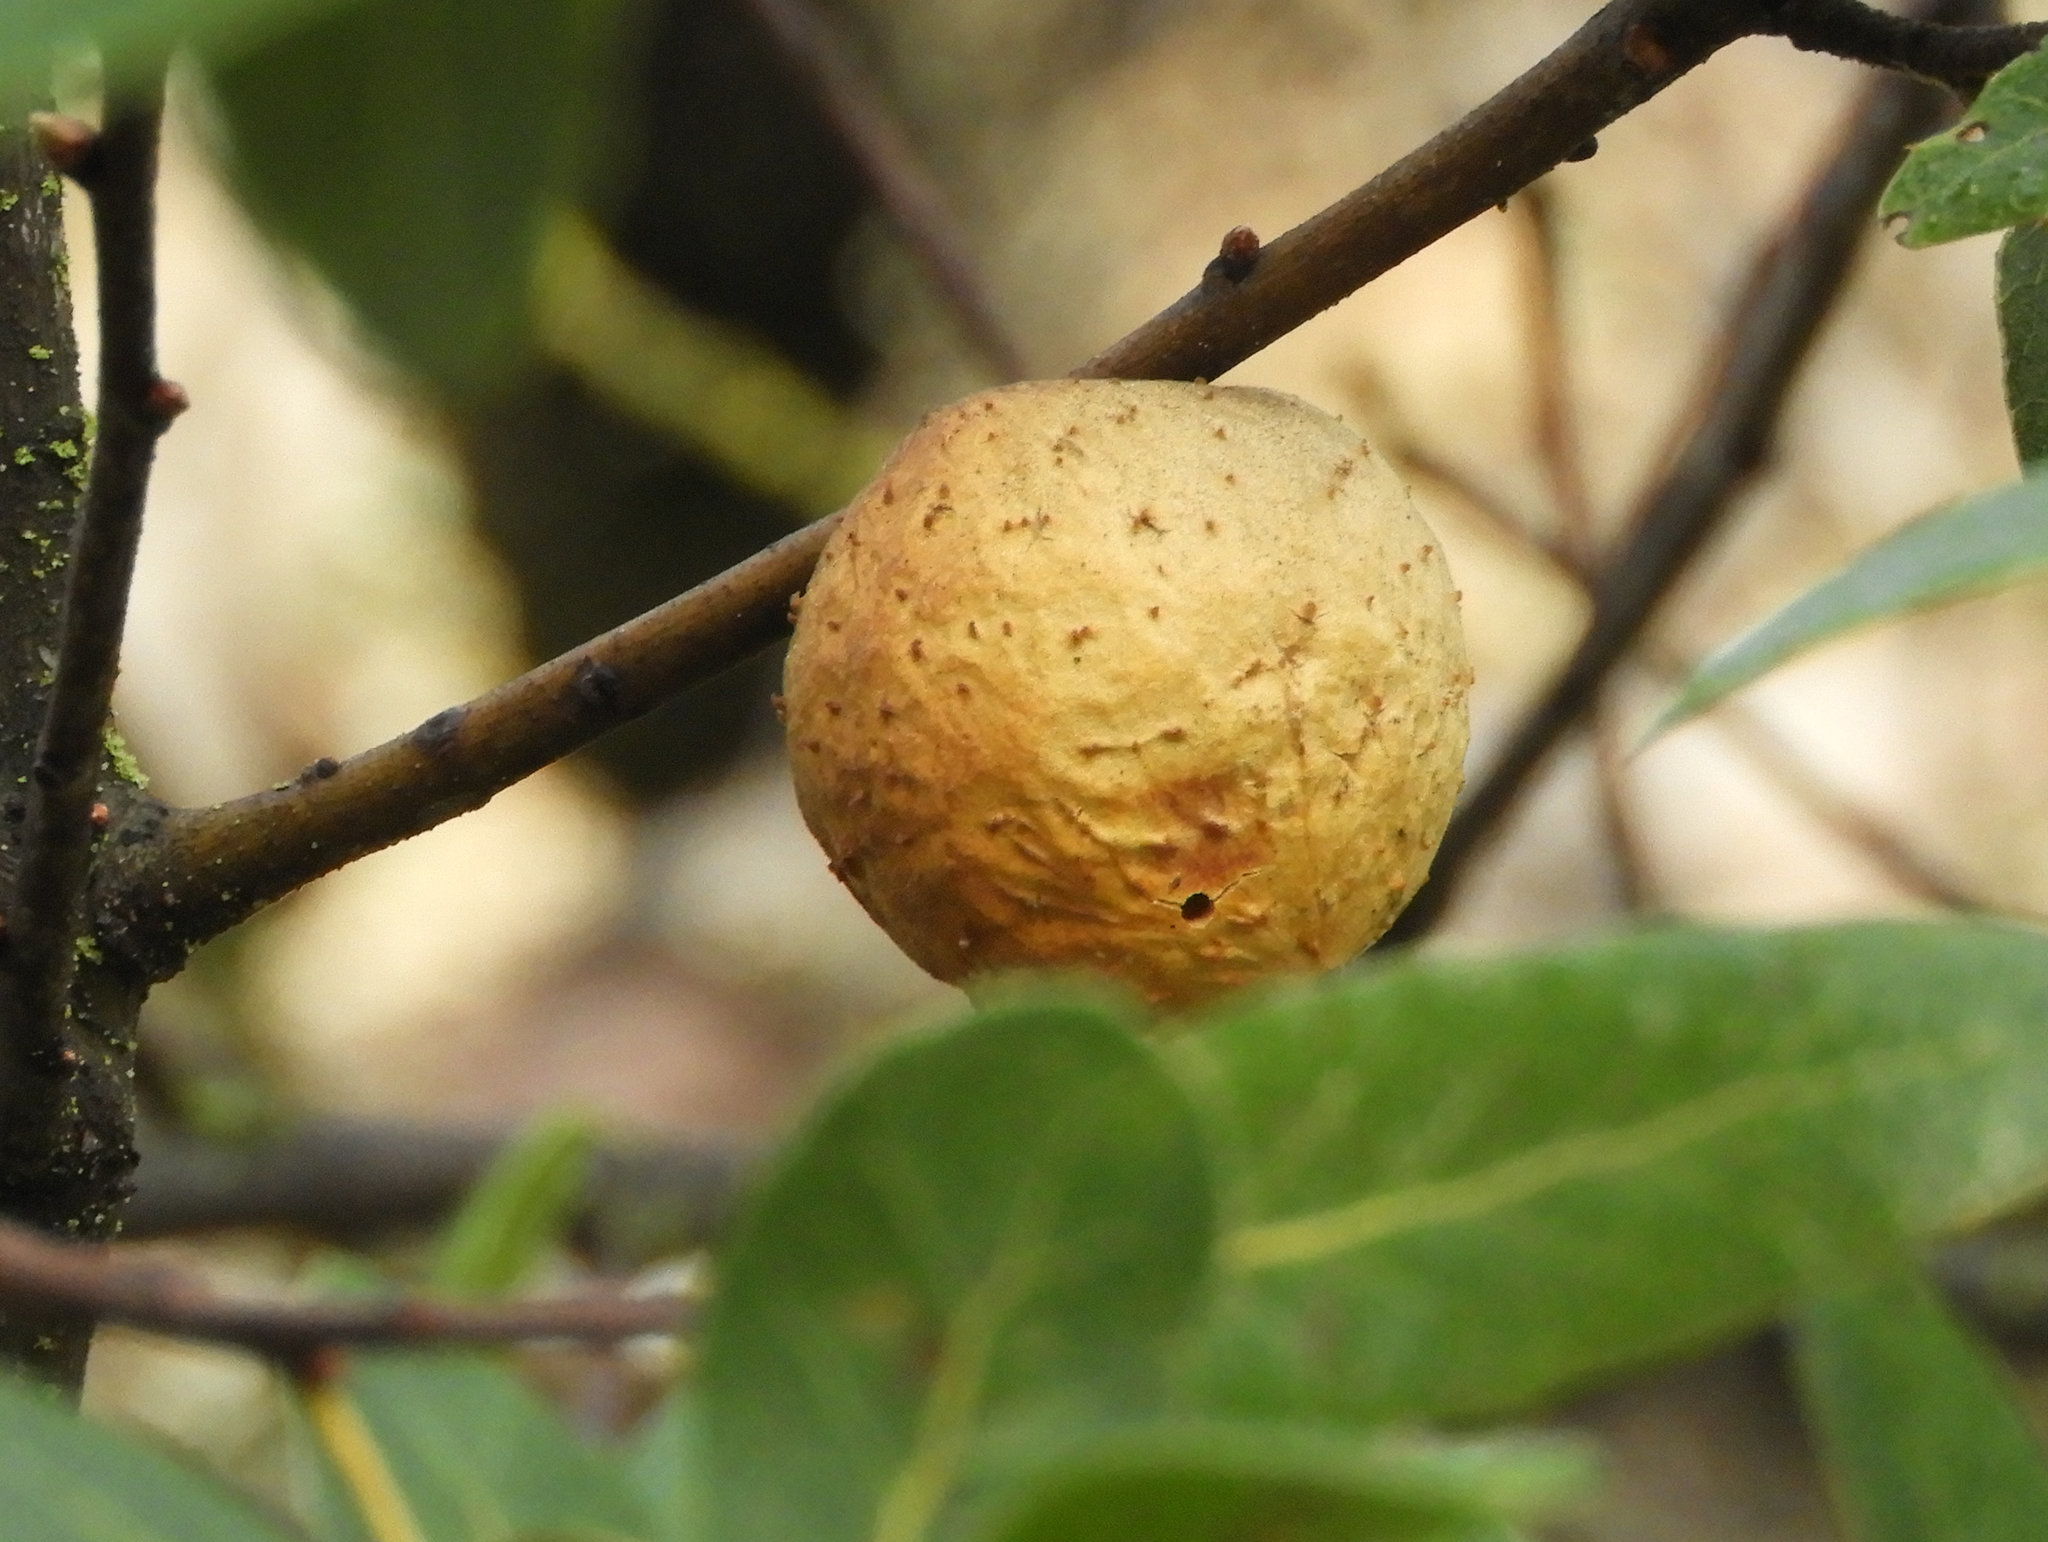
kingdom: Animalia
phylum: Arthropoda
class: Insecta
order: Hymenoptera
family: Cynipidae
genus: Amphibolips
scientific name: Amphibolips quercuspomiformis
